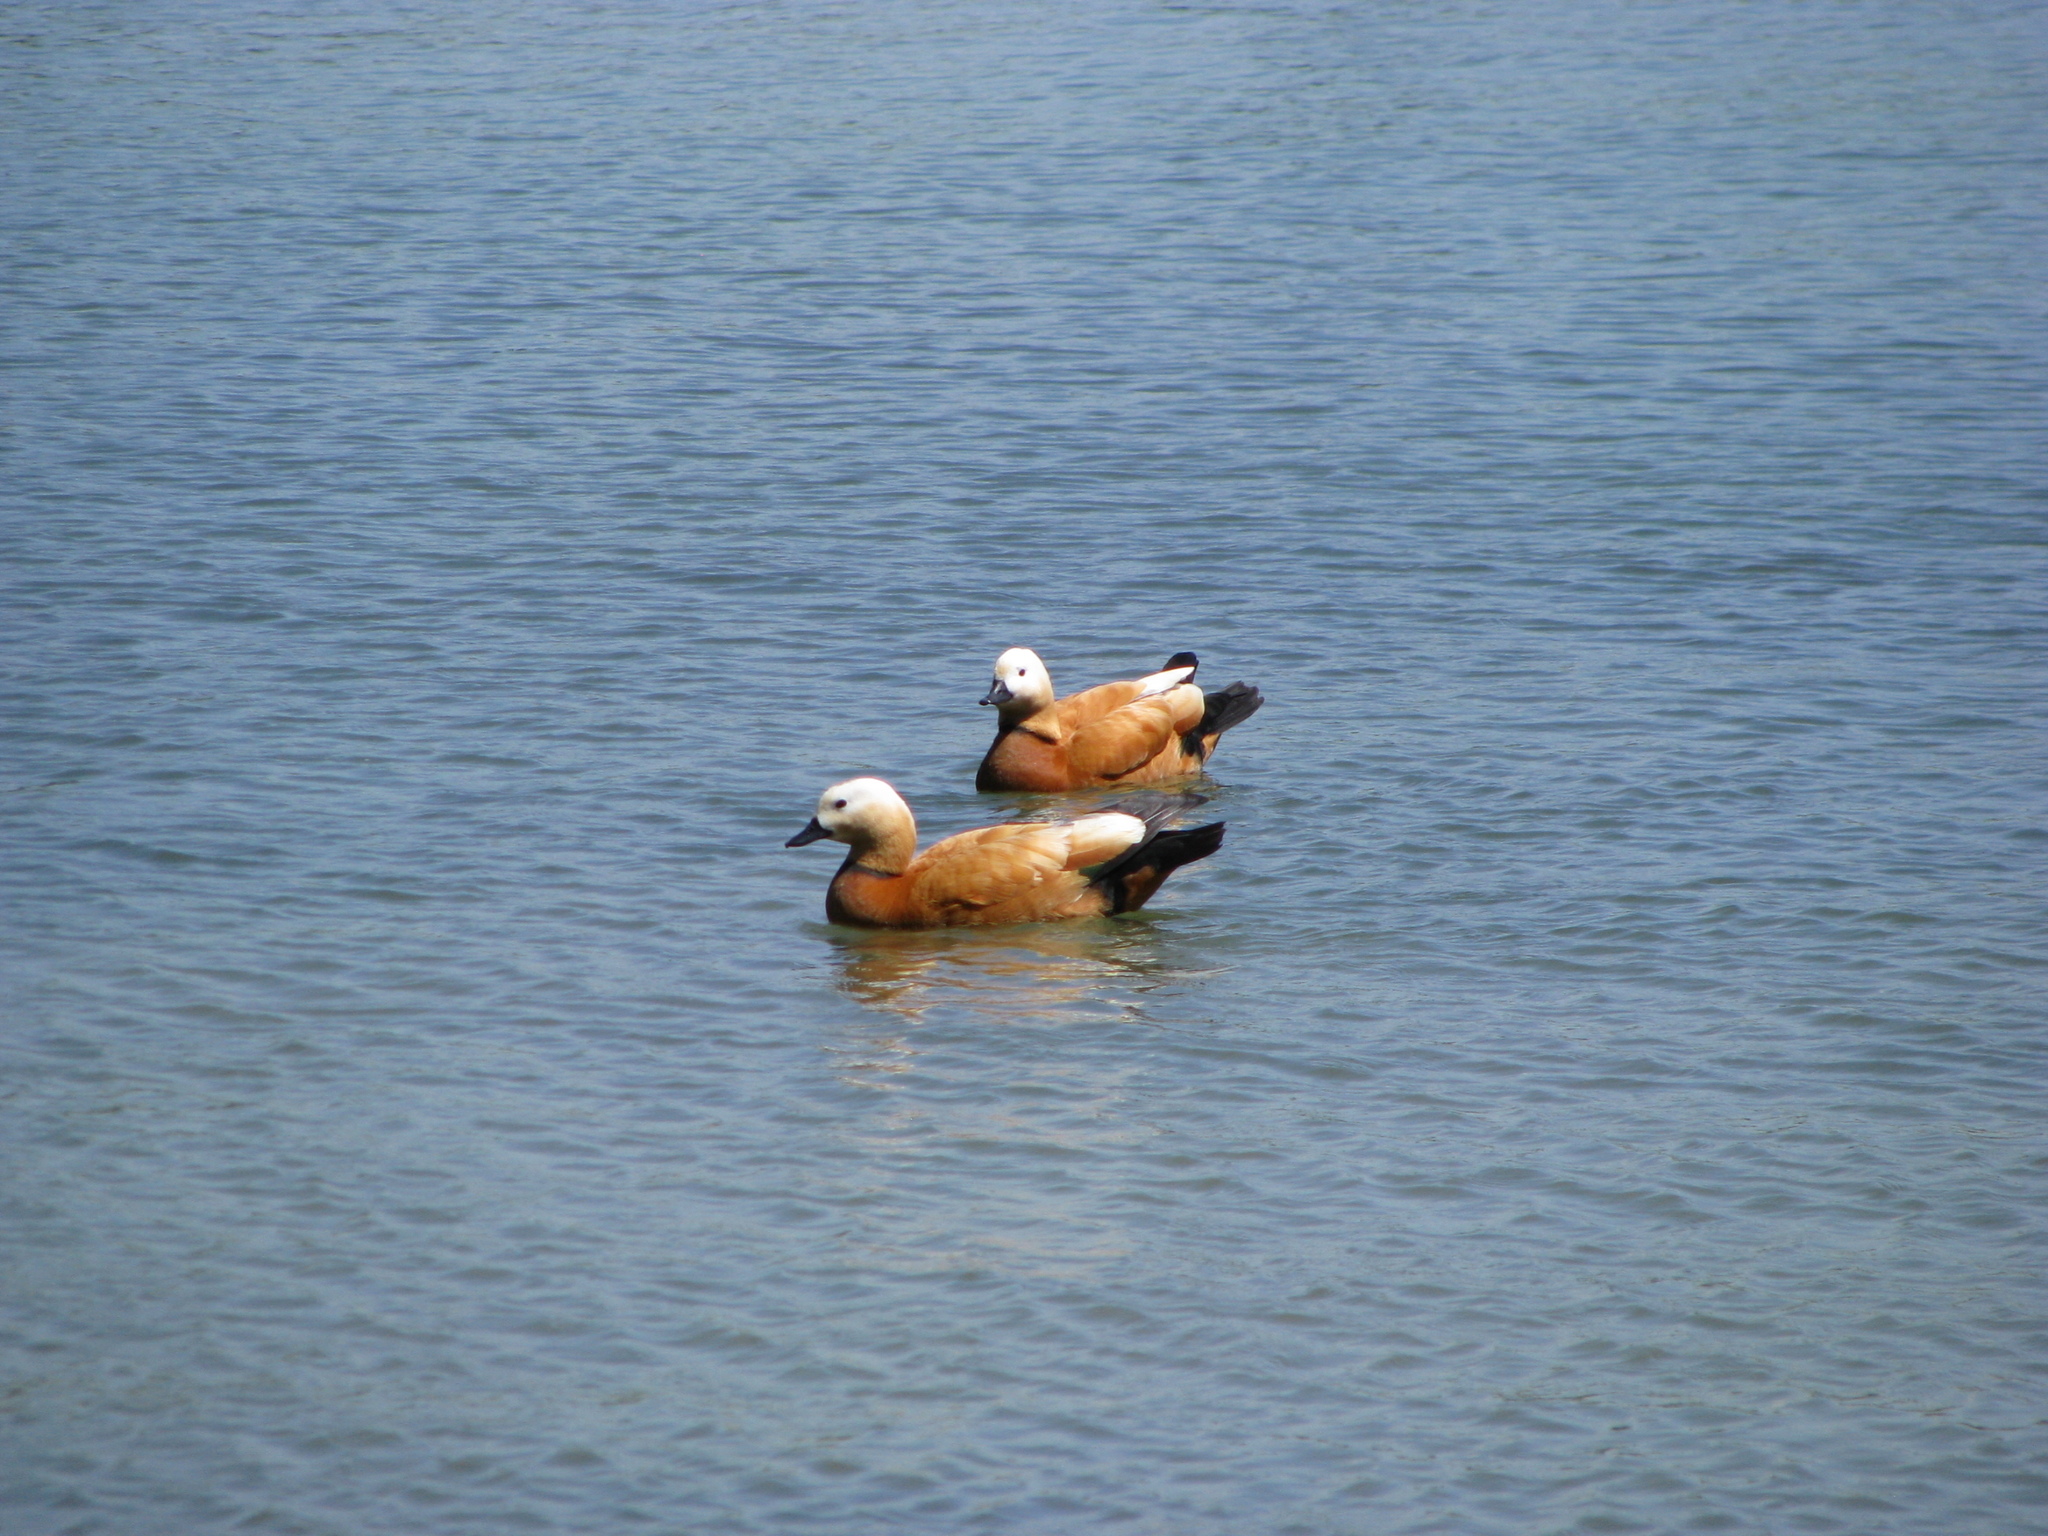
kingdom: Animalia
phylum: Chordata
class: Aves
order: Anseriformes
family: Anatidae
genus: Tadorna
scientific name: Tadorna ferruginea
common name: Ruddy shelduck
